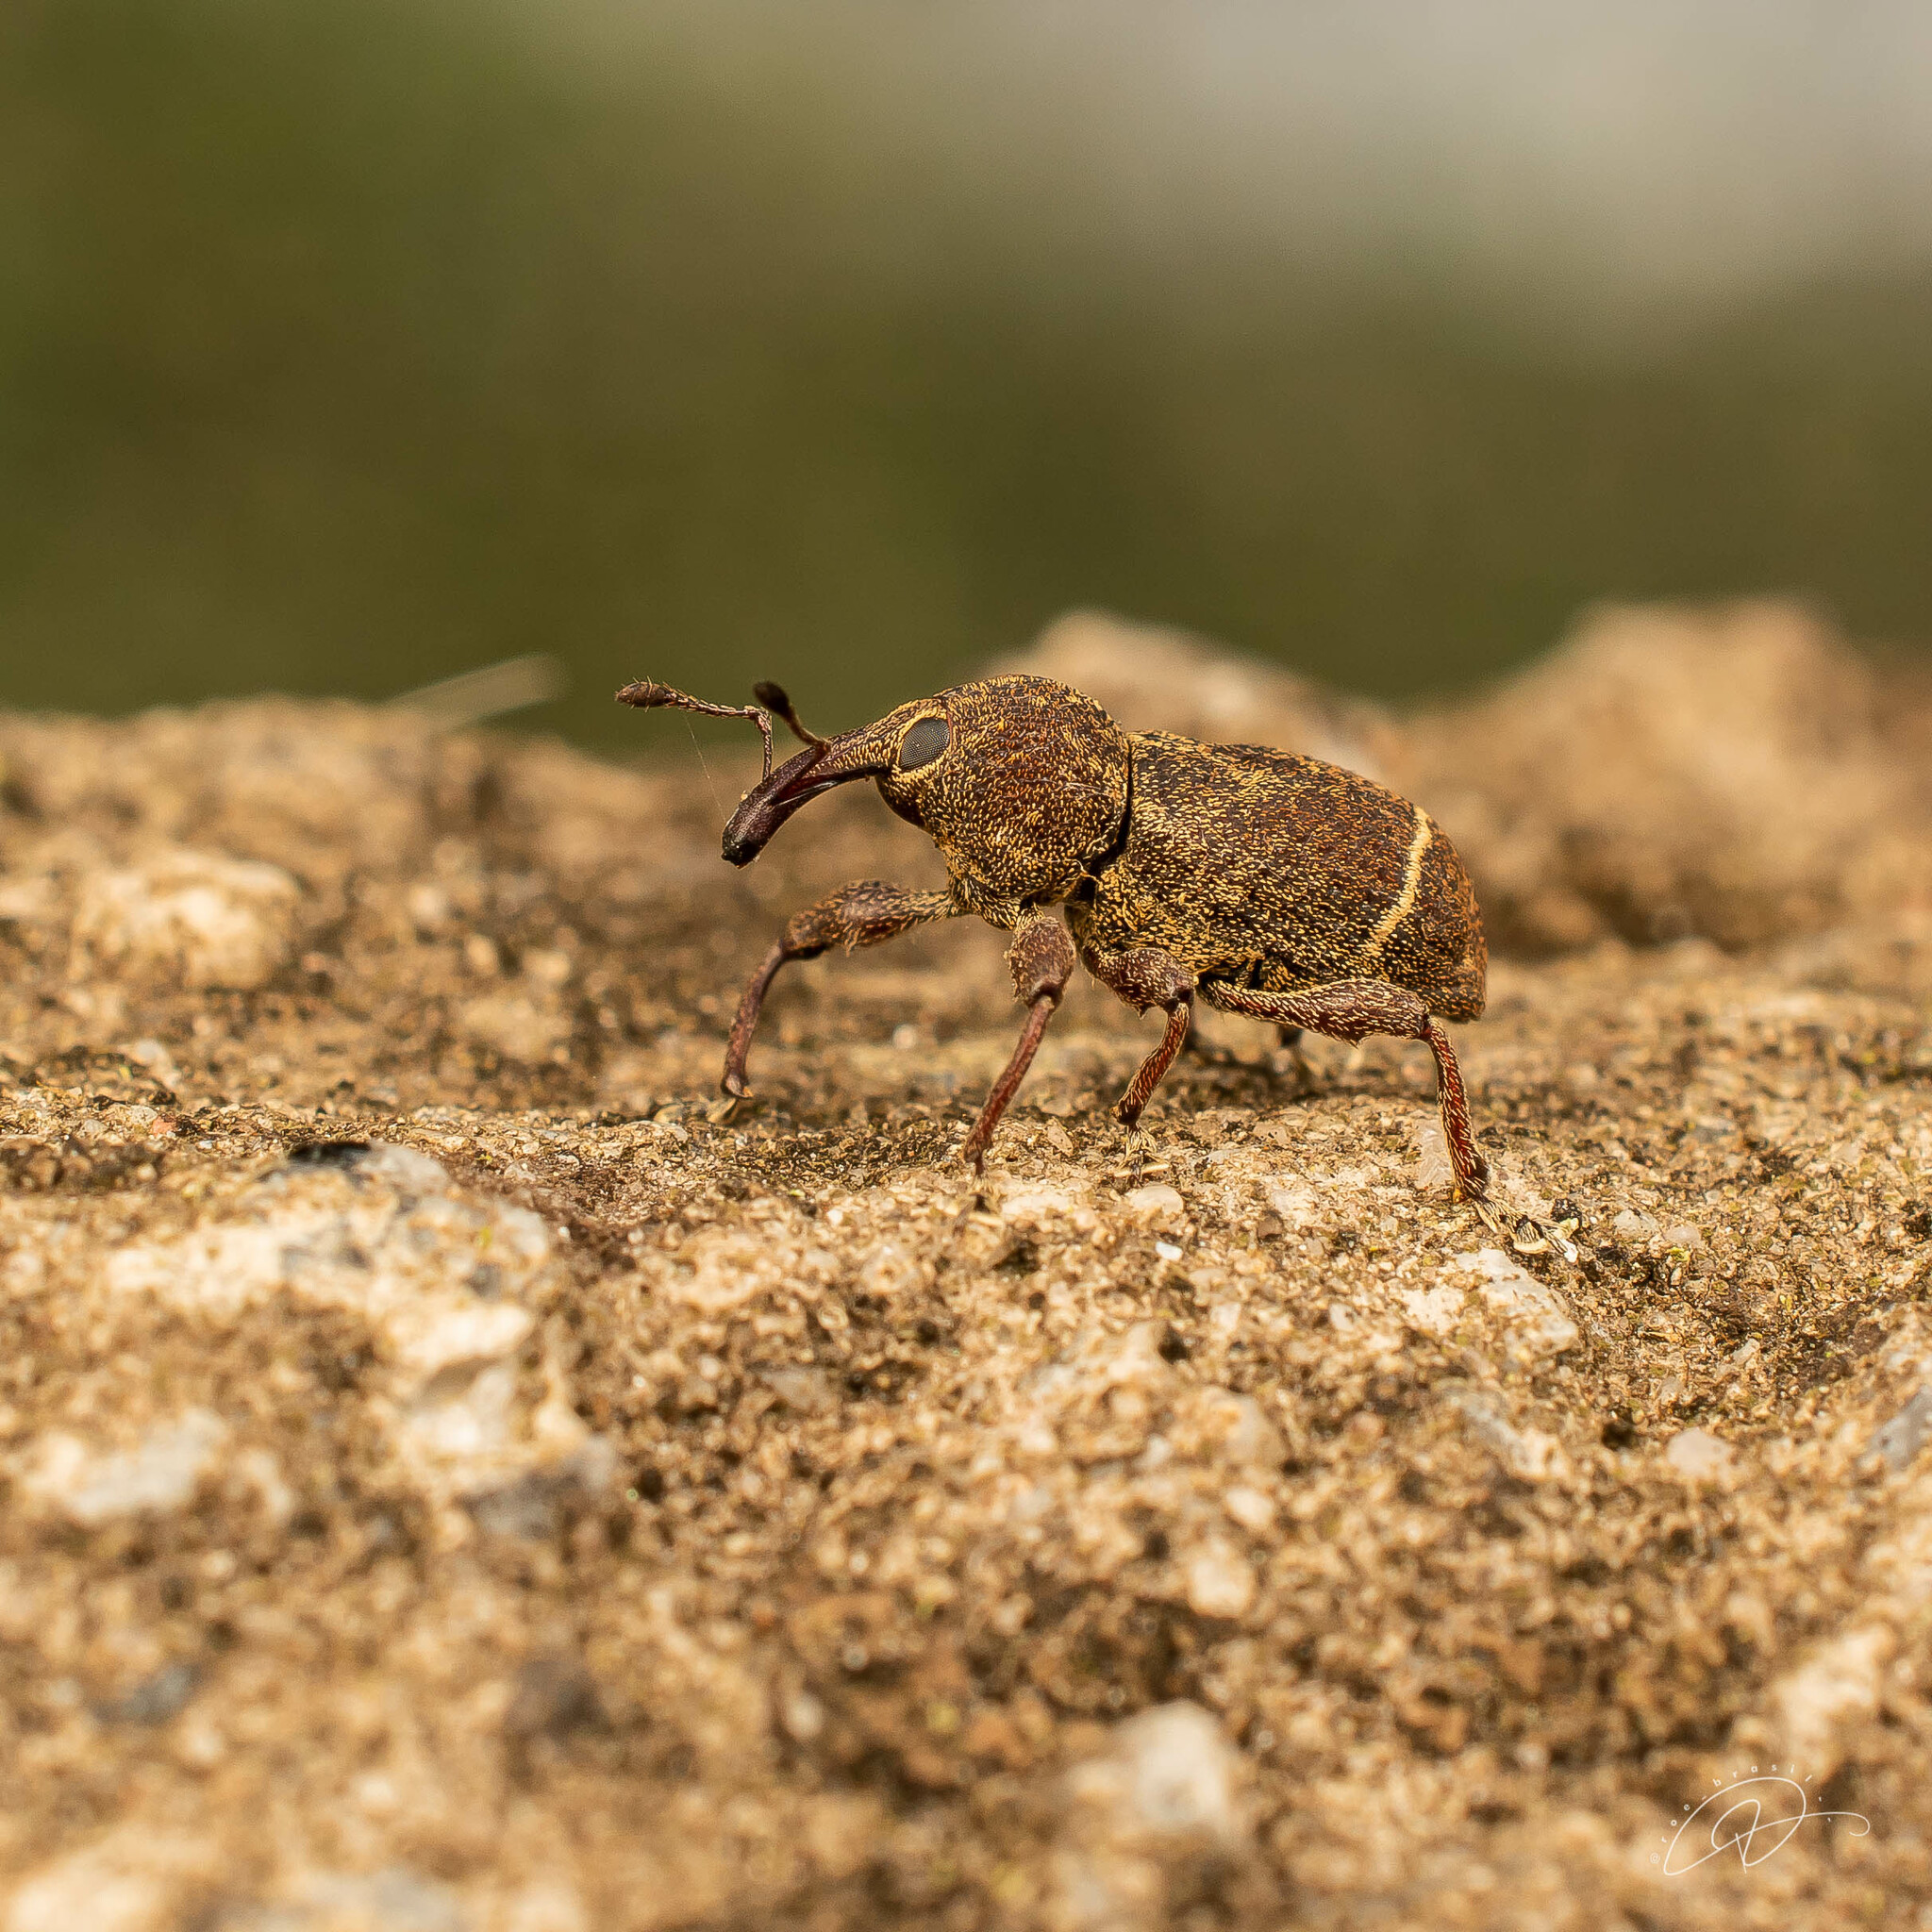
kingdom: Animalia
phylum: Arthropoda
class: Insecta
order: Coleoptera
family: Curculionidae
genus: Centor
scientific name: Centor balteatus
